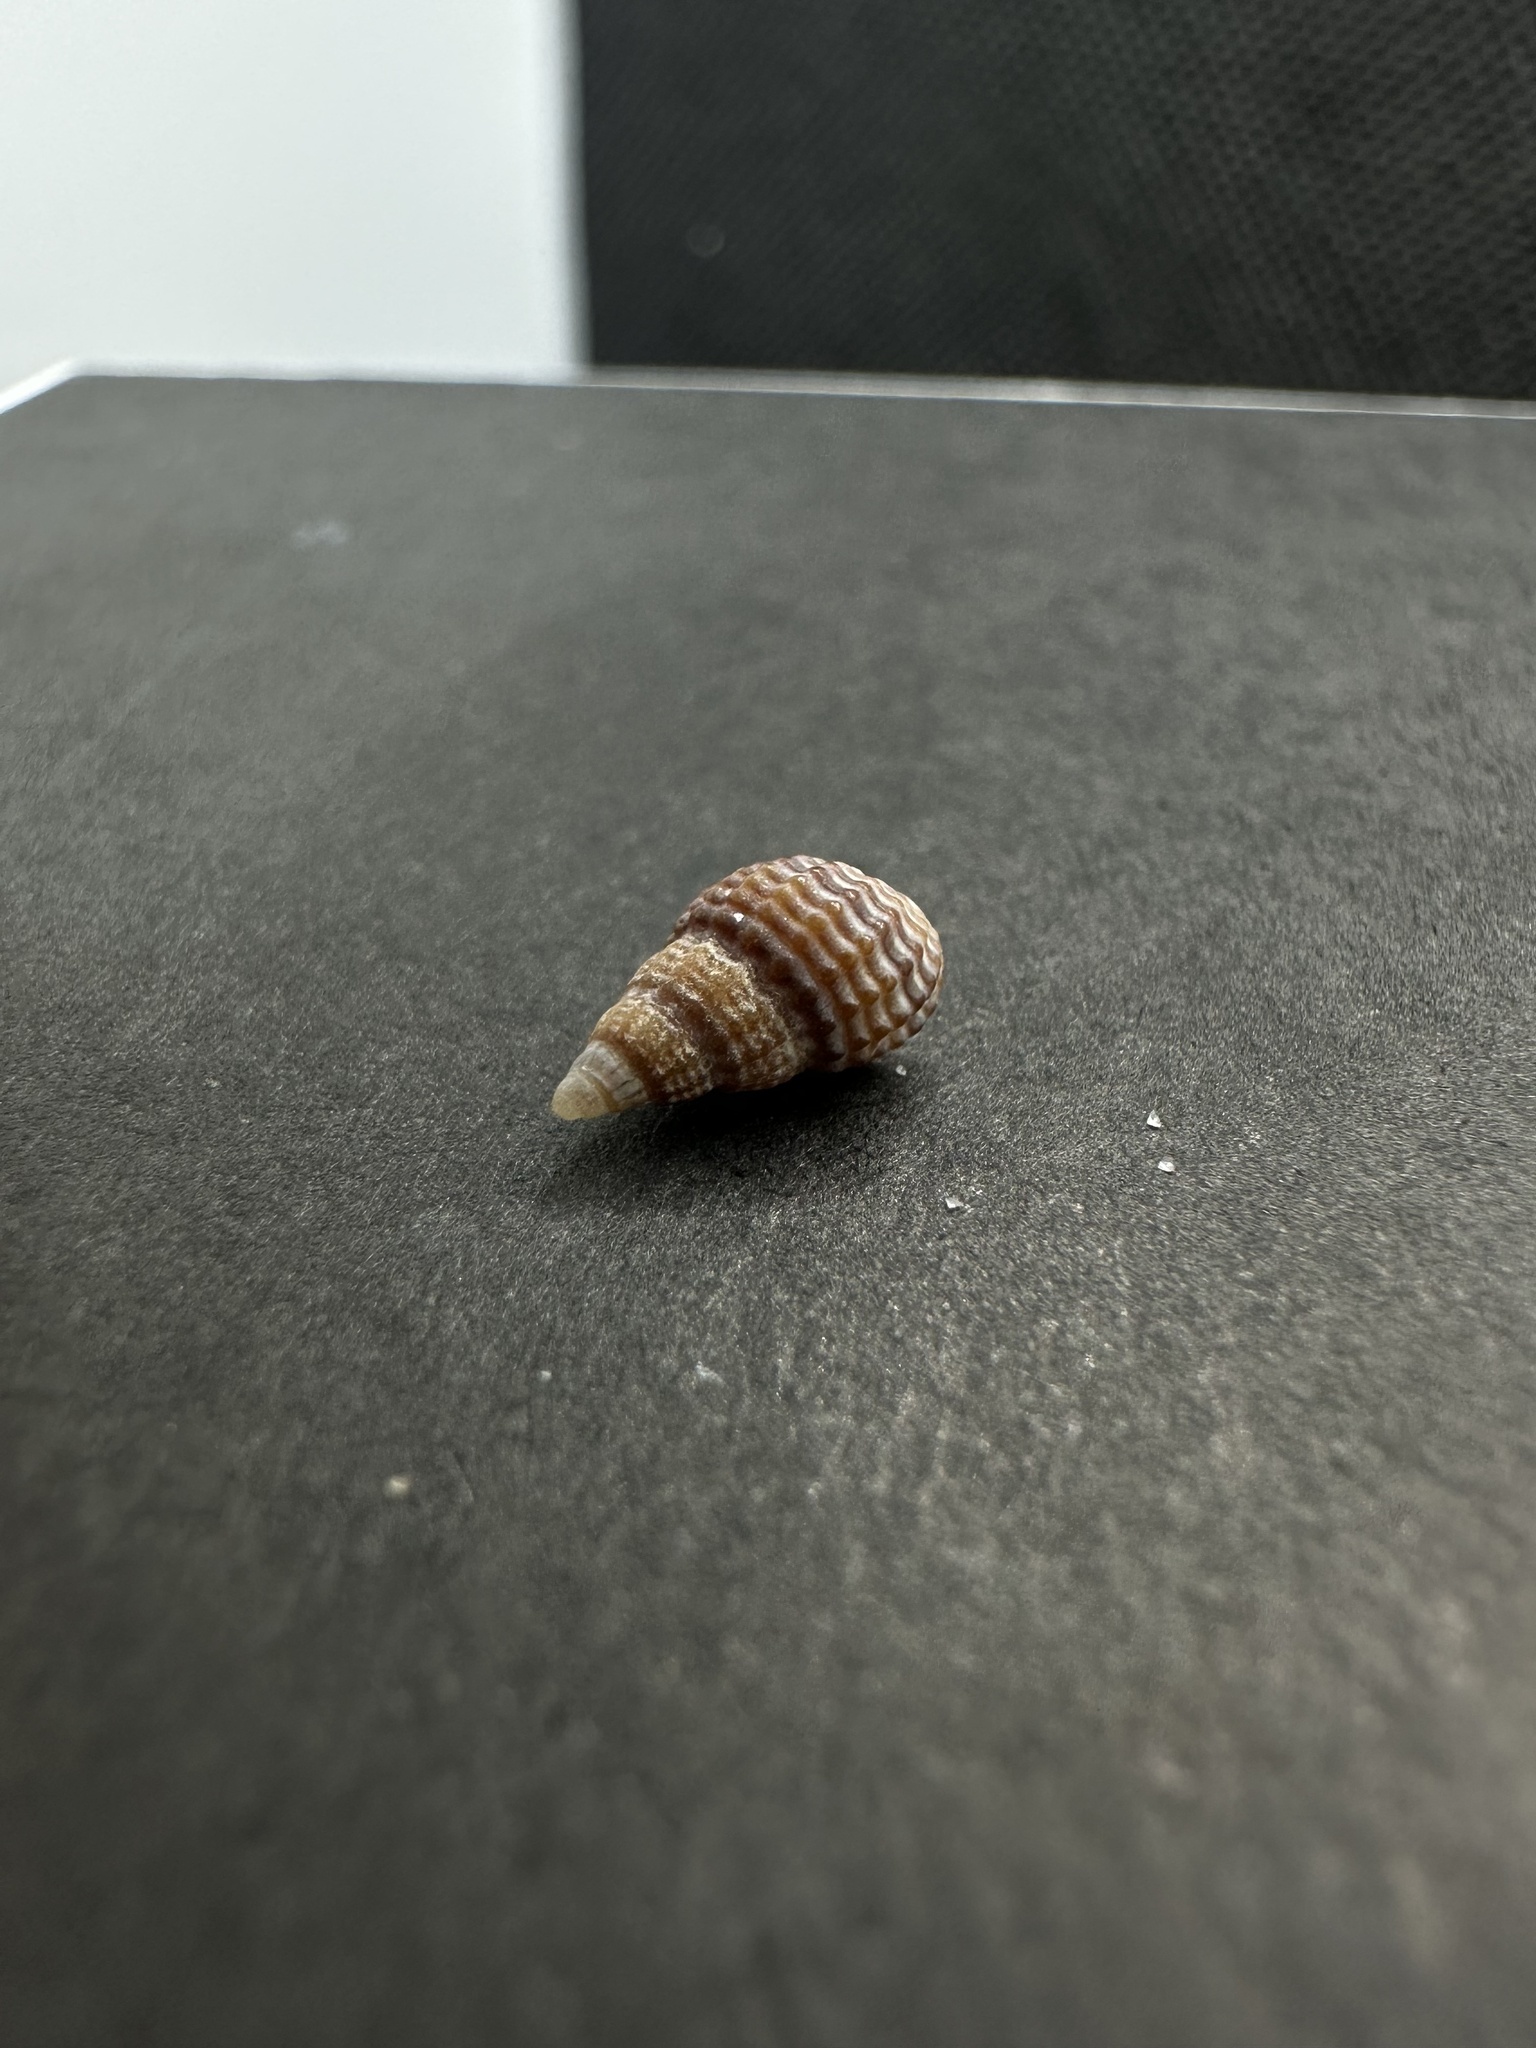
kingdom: Animalia
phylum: Mollusca
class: Gastropoda
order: Neogastropoda
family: Nassariidae
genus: Ilyanassa
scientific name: Ilyanassa trivittata
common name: Three-line mudsnail
